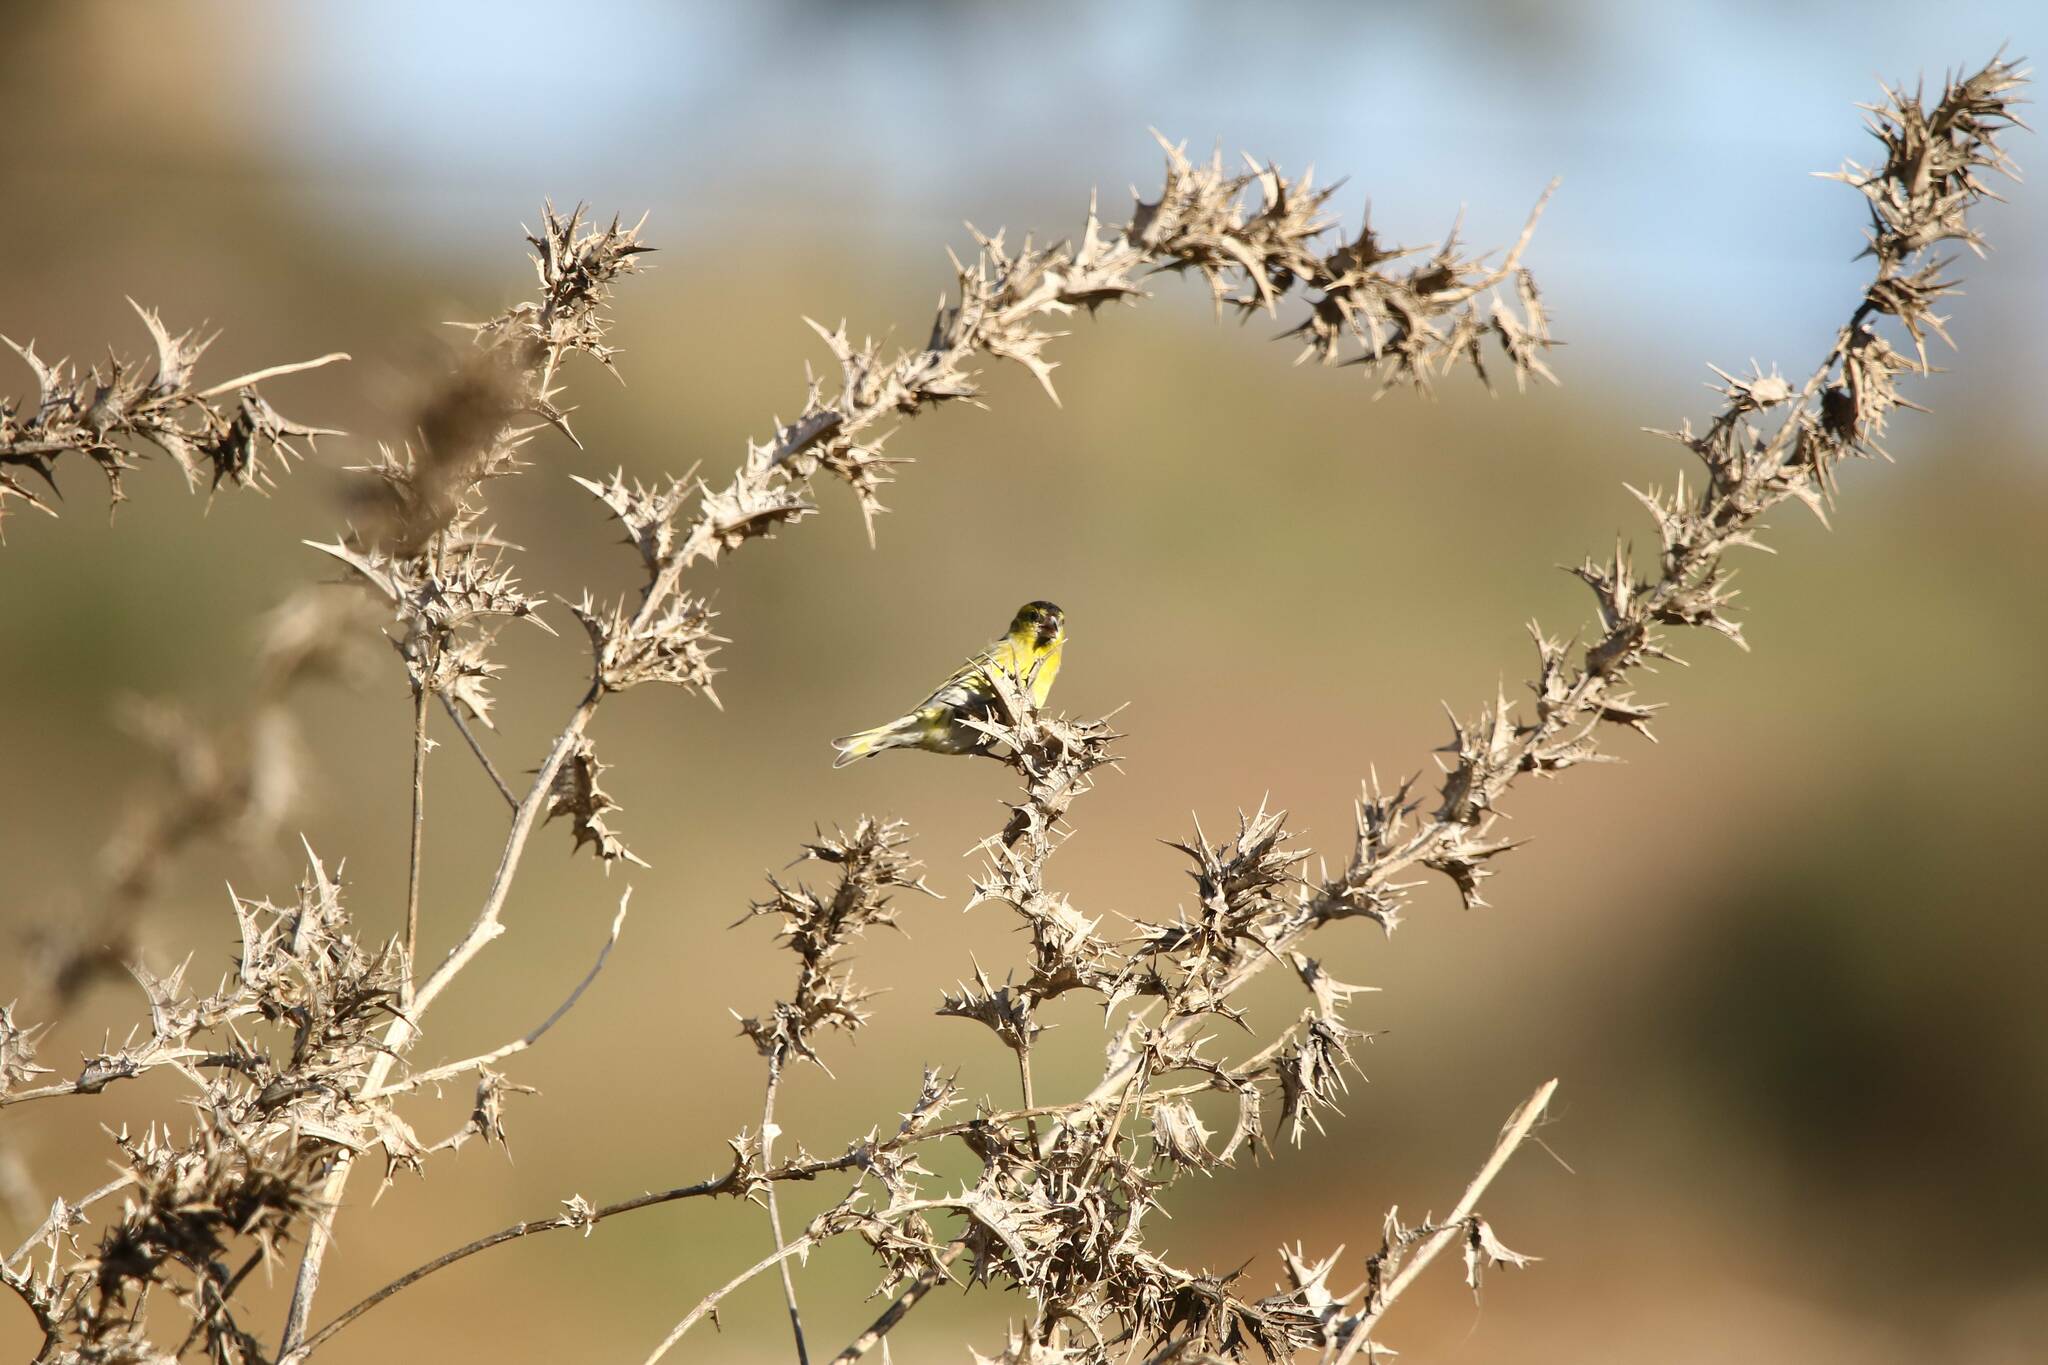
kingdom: Animalia
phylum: Chordata
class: Aves
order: Passeriformes
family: Fringillidae
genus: Spinus
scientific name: Spinus spinus
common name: Eurasian siskin
